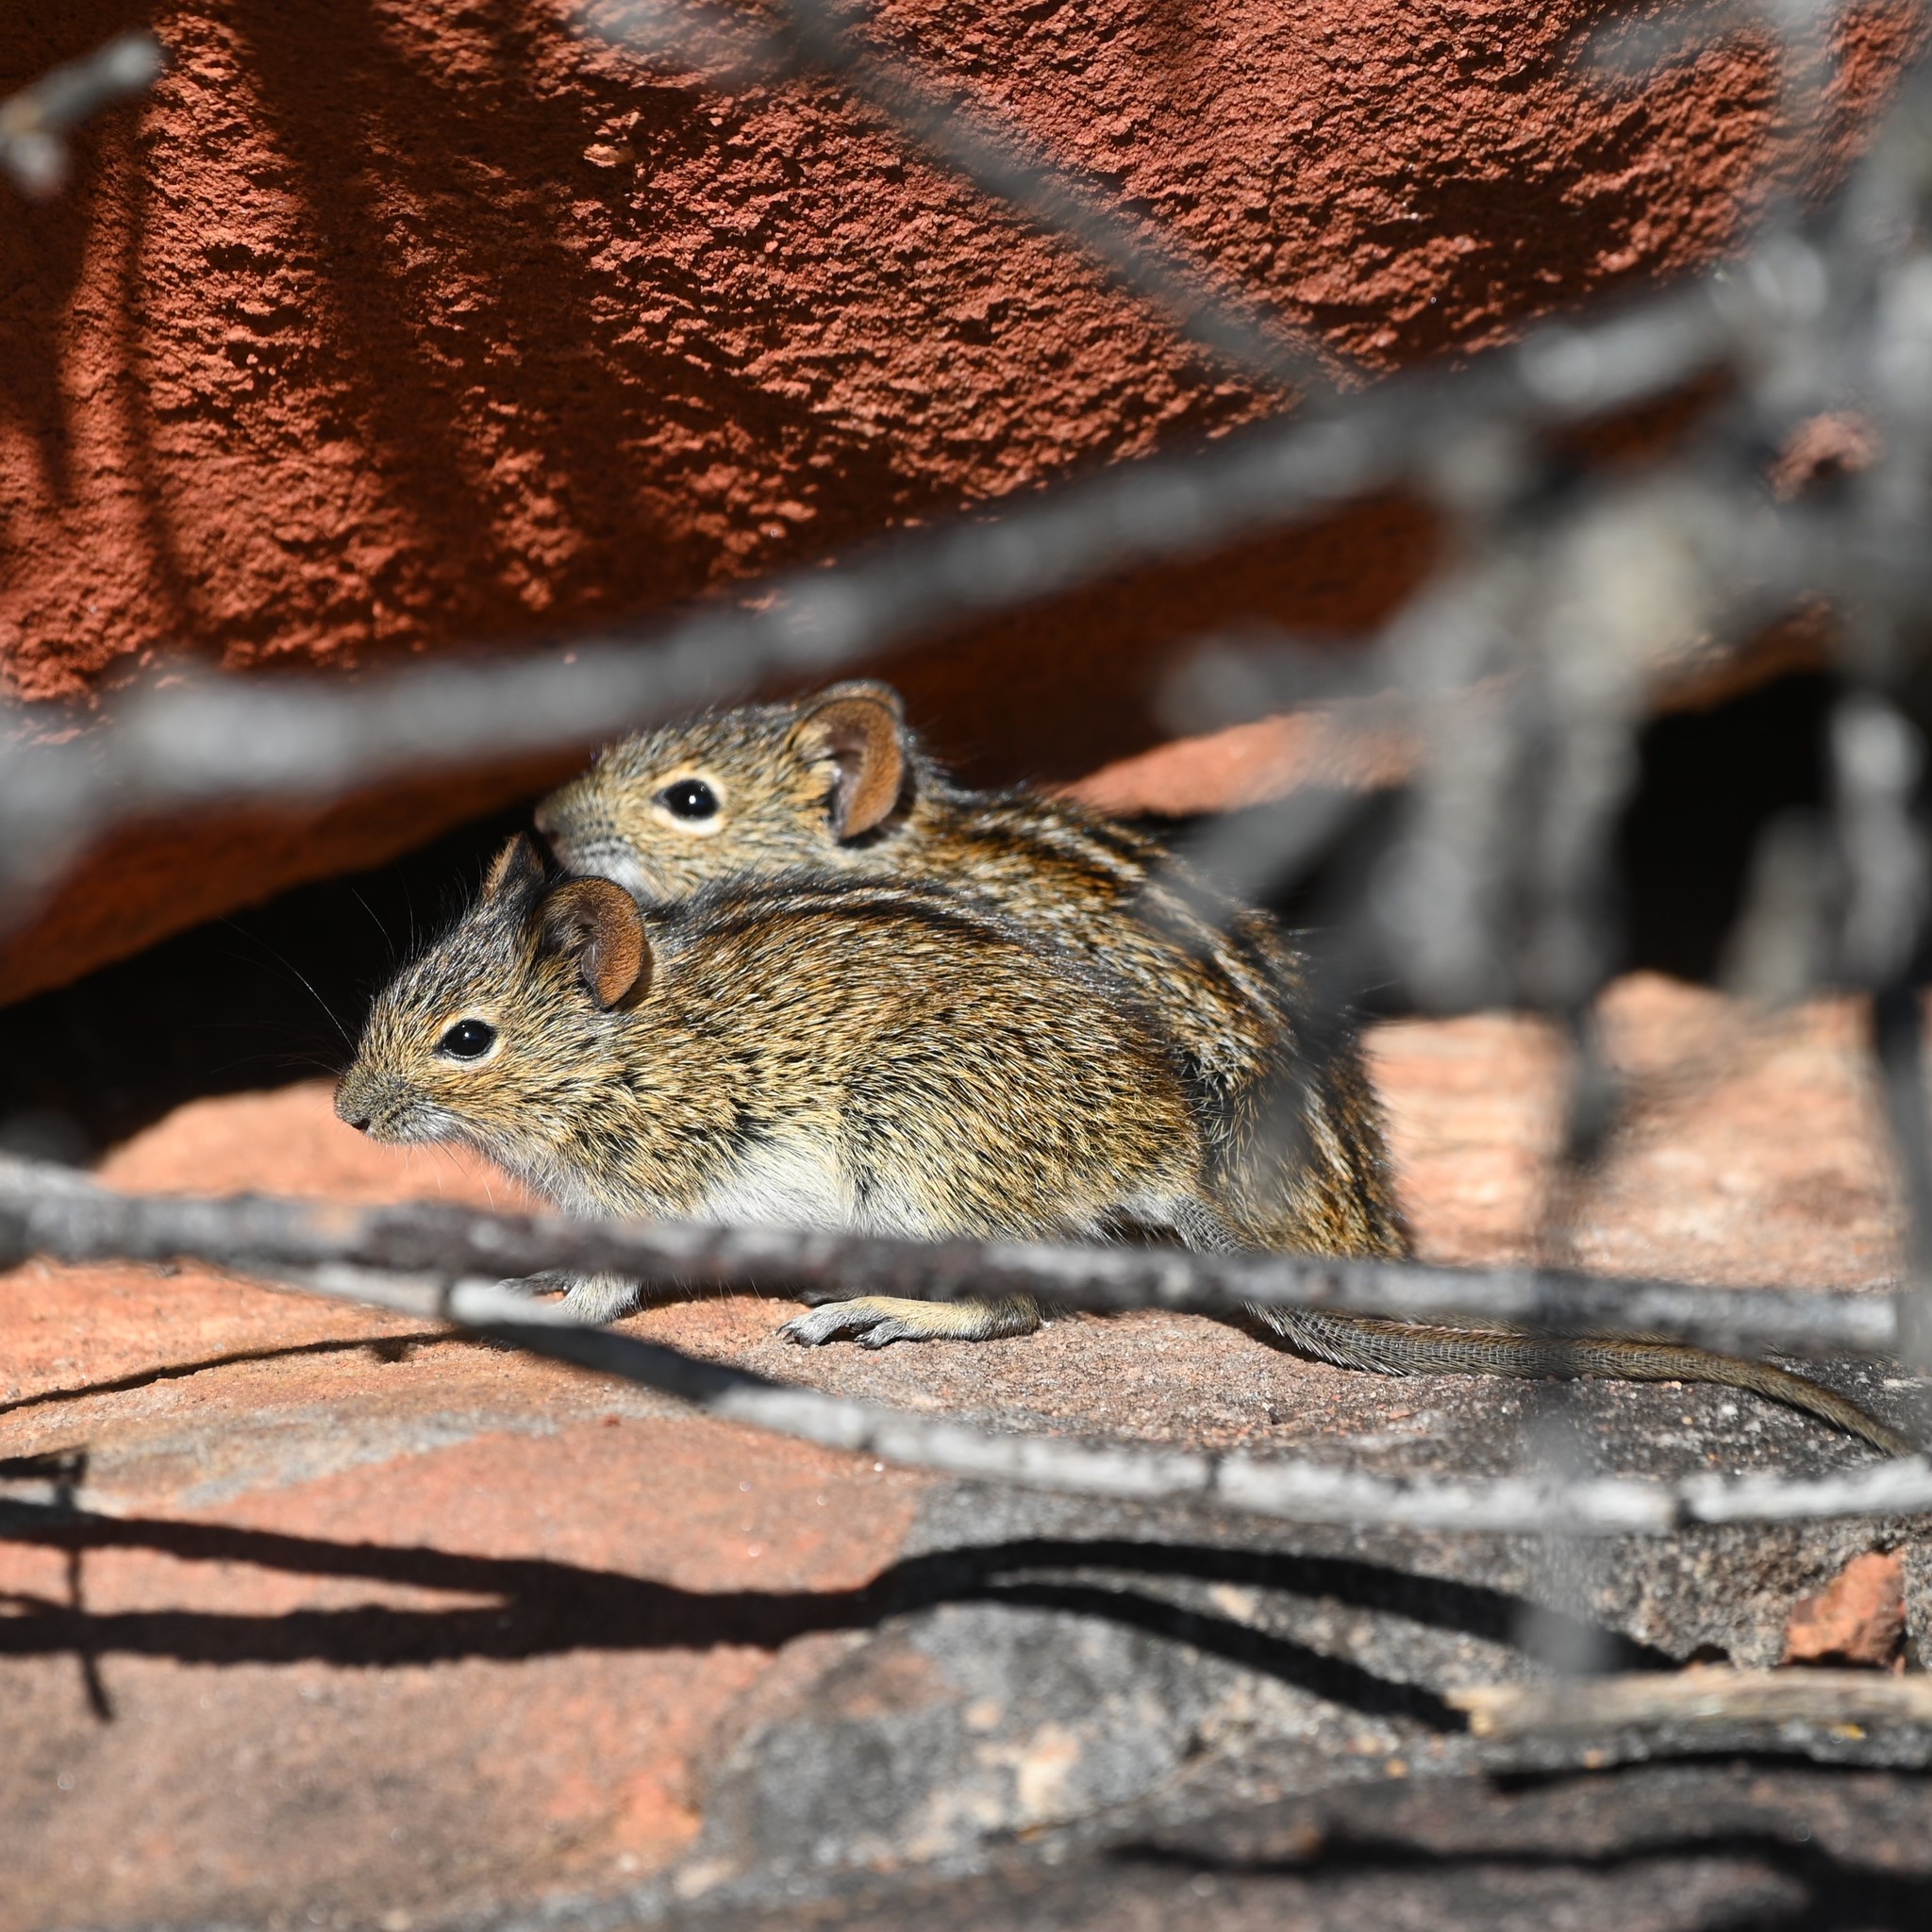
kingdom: Animalia
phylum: Chordata
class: Mammalia
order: Rodentia
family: Muridae
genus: Rhabdomys
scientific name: Rhabdomys pumilio
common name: Xeric four-striped grass rat
